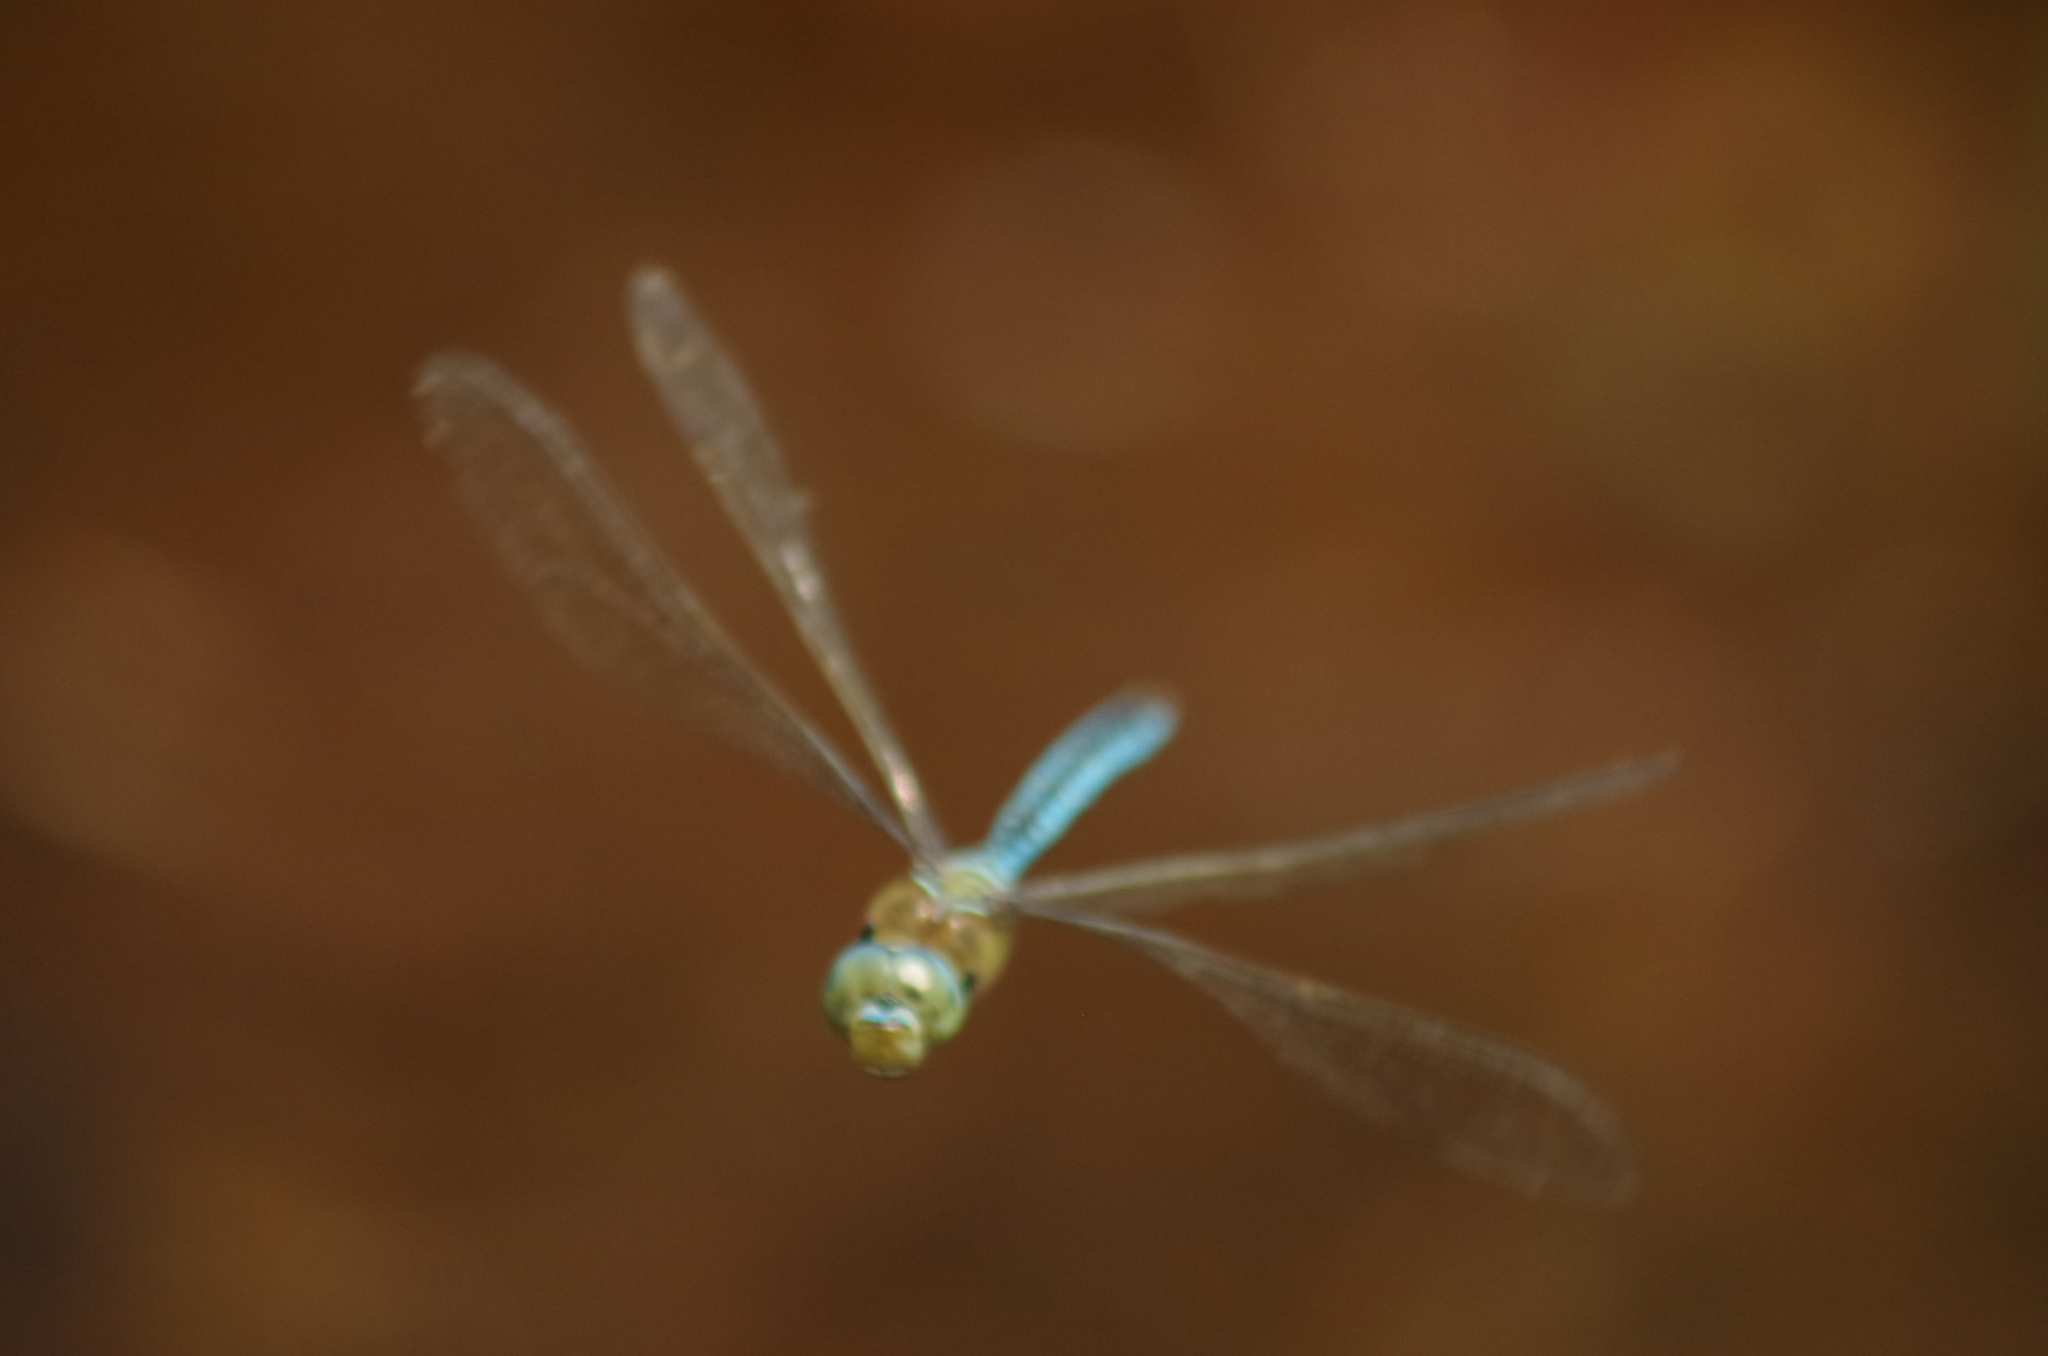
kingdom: Animalia
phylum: Arthropoda
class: Insecta
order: Odonata
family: Aeshnidae
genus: Anax
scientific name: Anax imperator
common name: Emperor dragonfly
